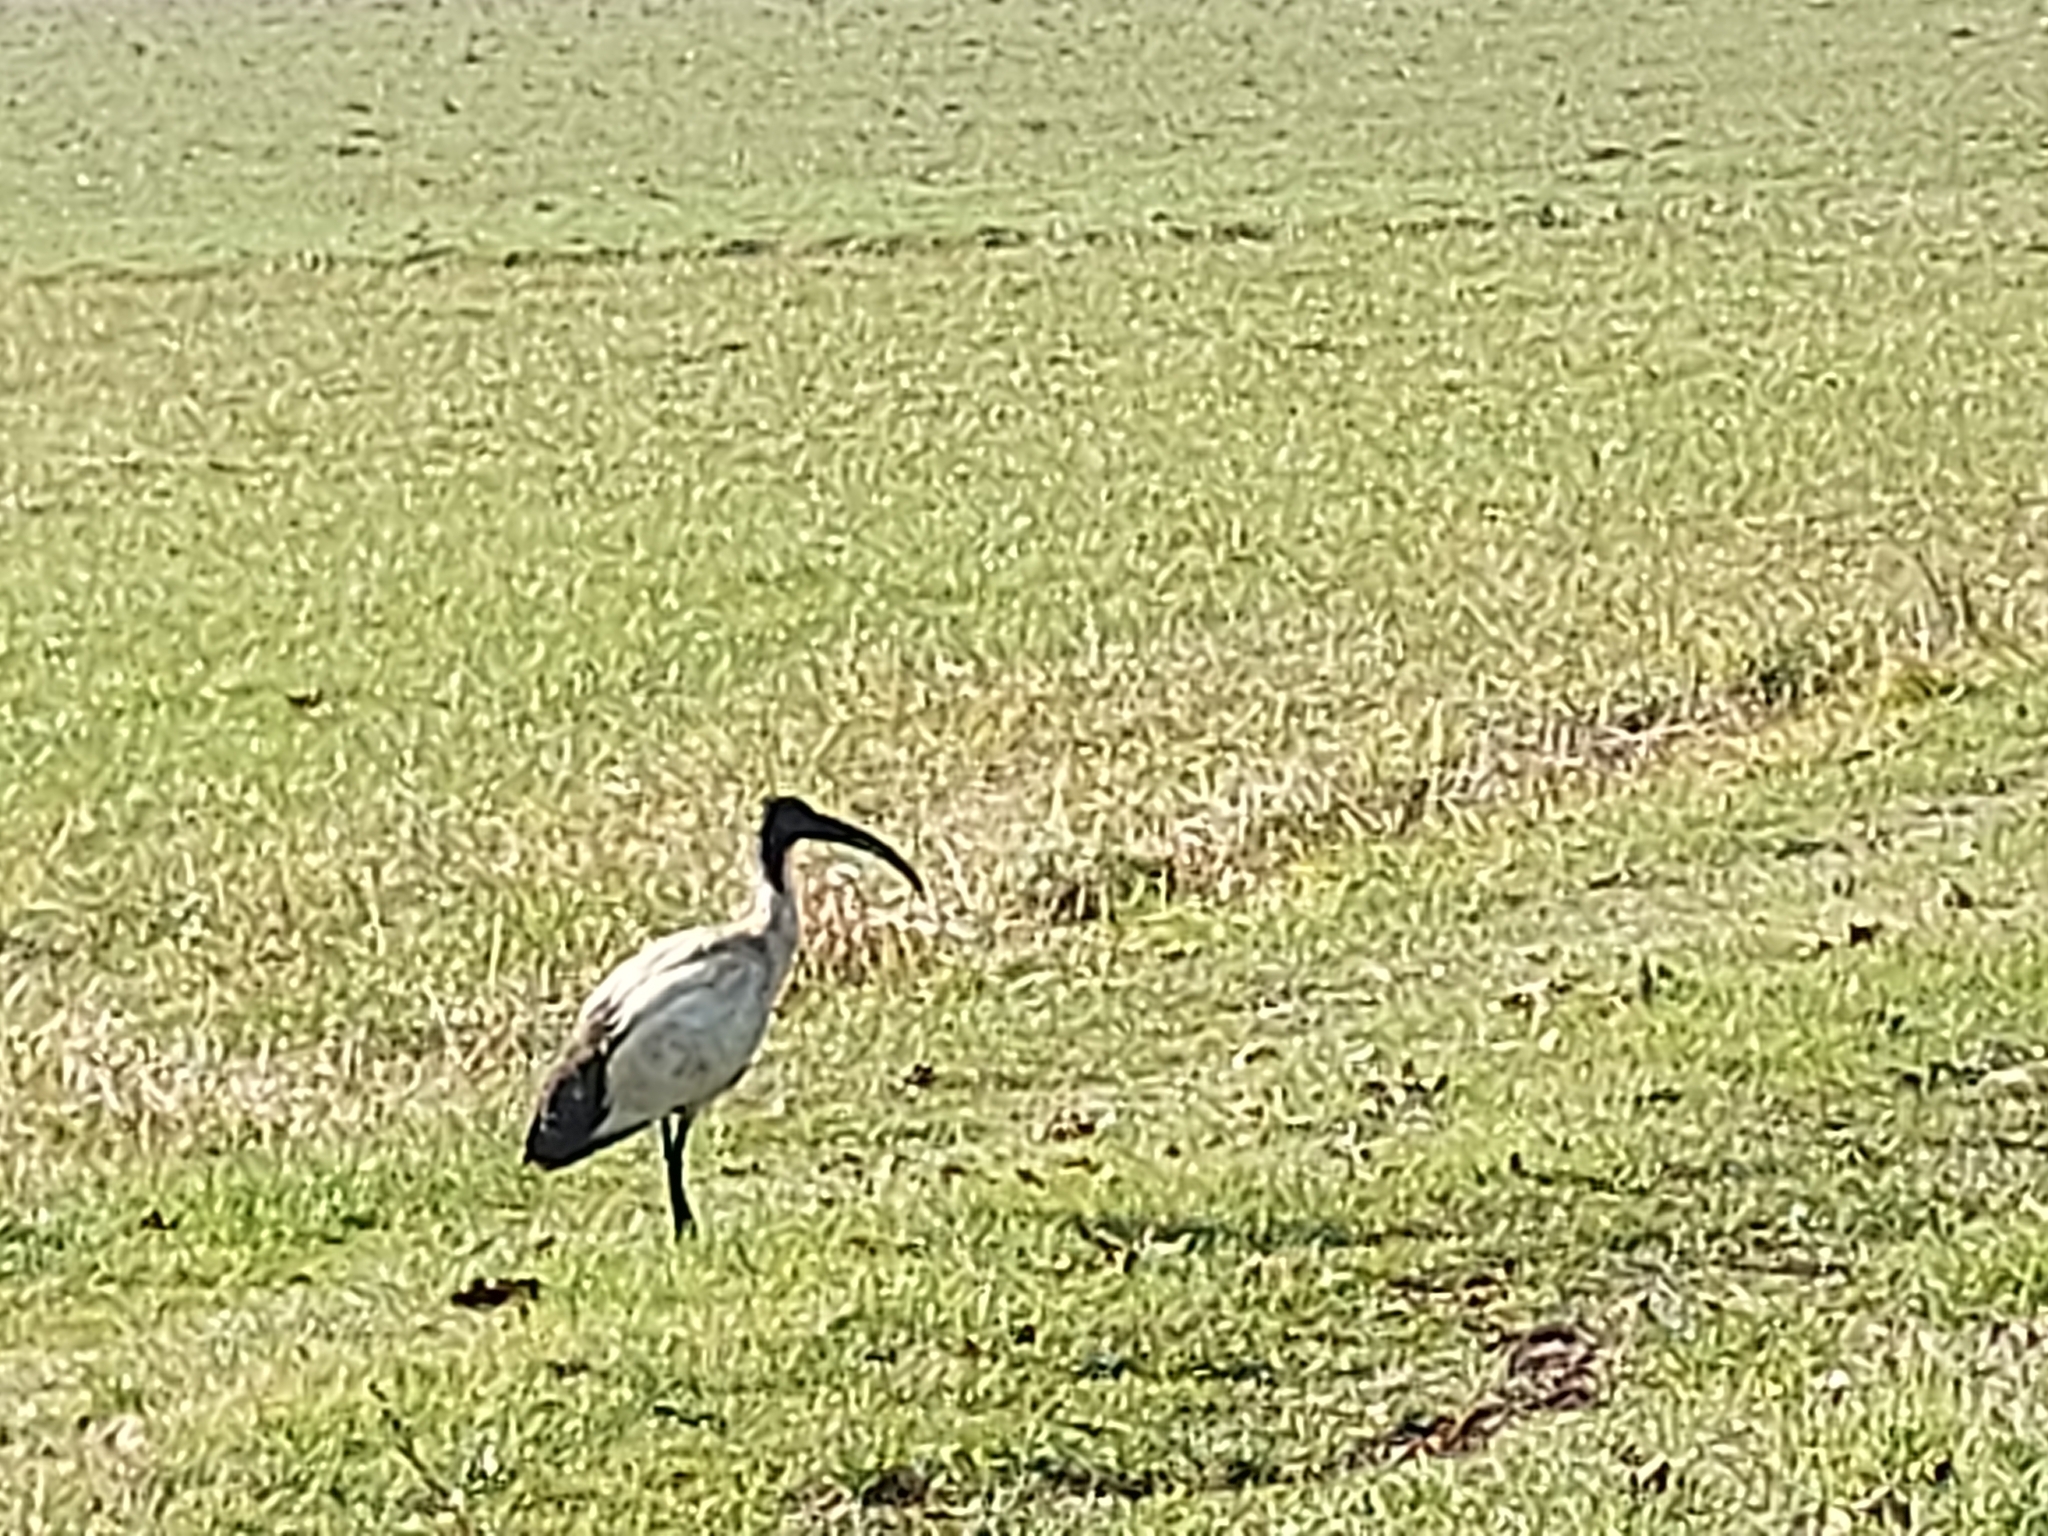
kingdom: Animalia
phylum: Chordata
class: Aves
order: Pelecaniformes
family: Threskiornithidae
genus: Threskiornis
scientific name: Threskiornis aethiopicus
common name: Sacred ibis
